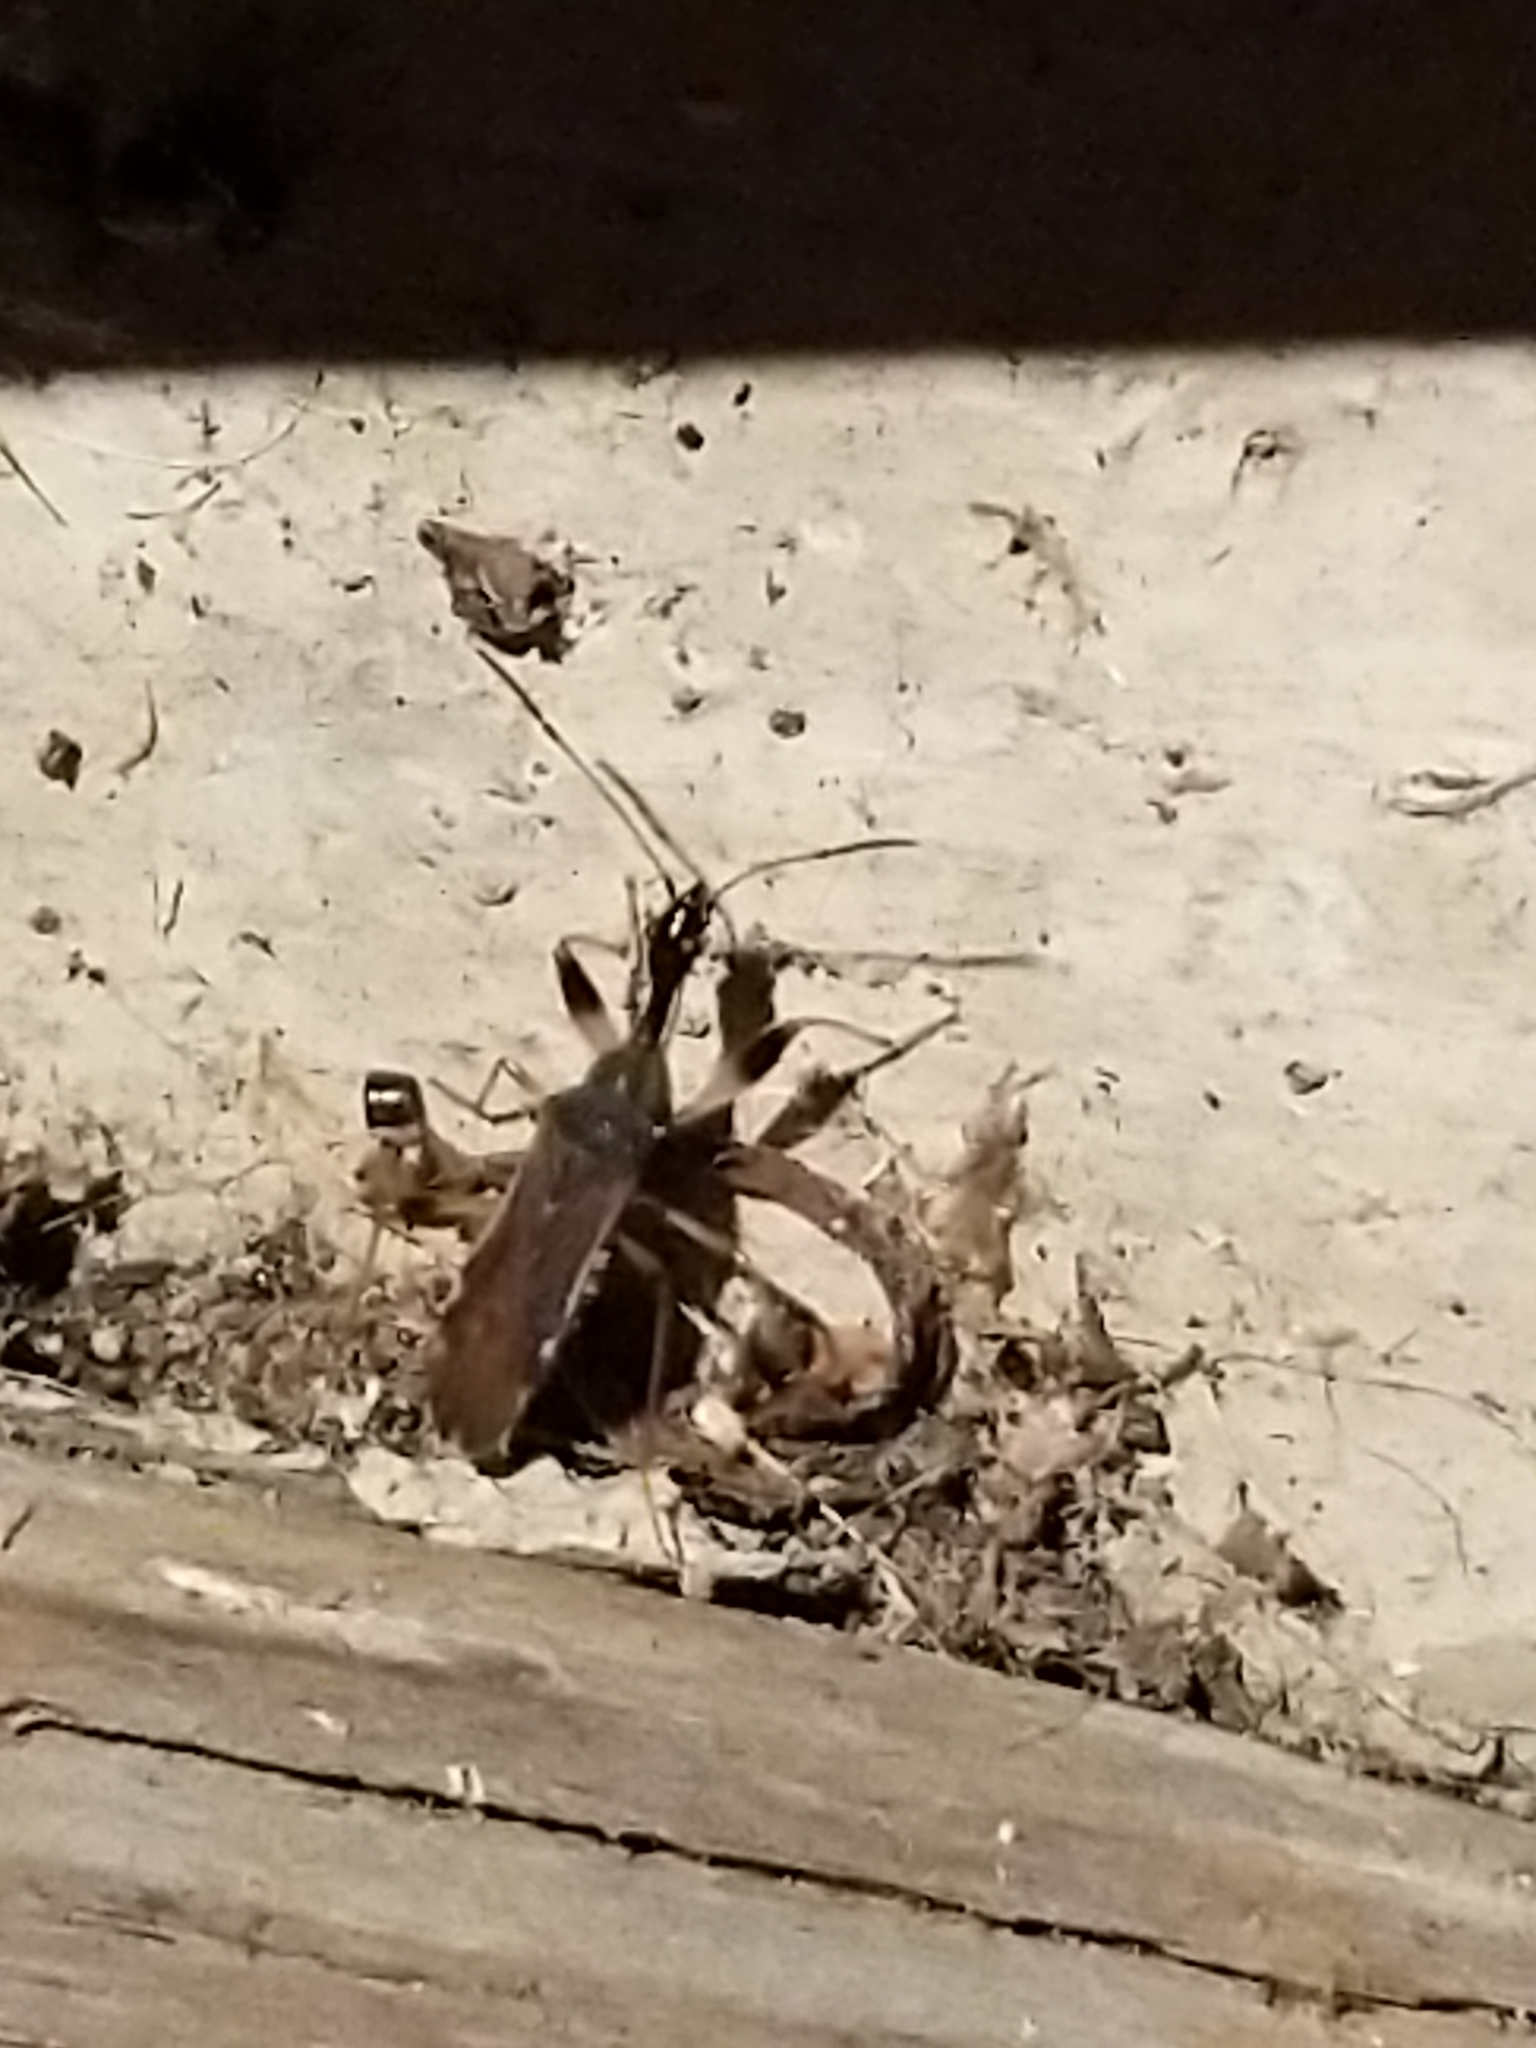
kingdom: Animalia
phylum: Arthropoda
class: Insecta
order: Hemiptera
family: Rhyparochromidae
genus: Myodocha
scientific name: Myodocha serripes
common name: Long-necked seed bug
